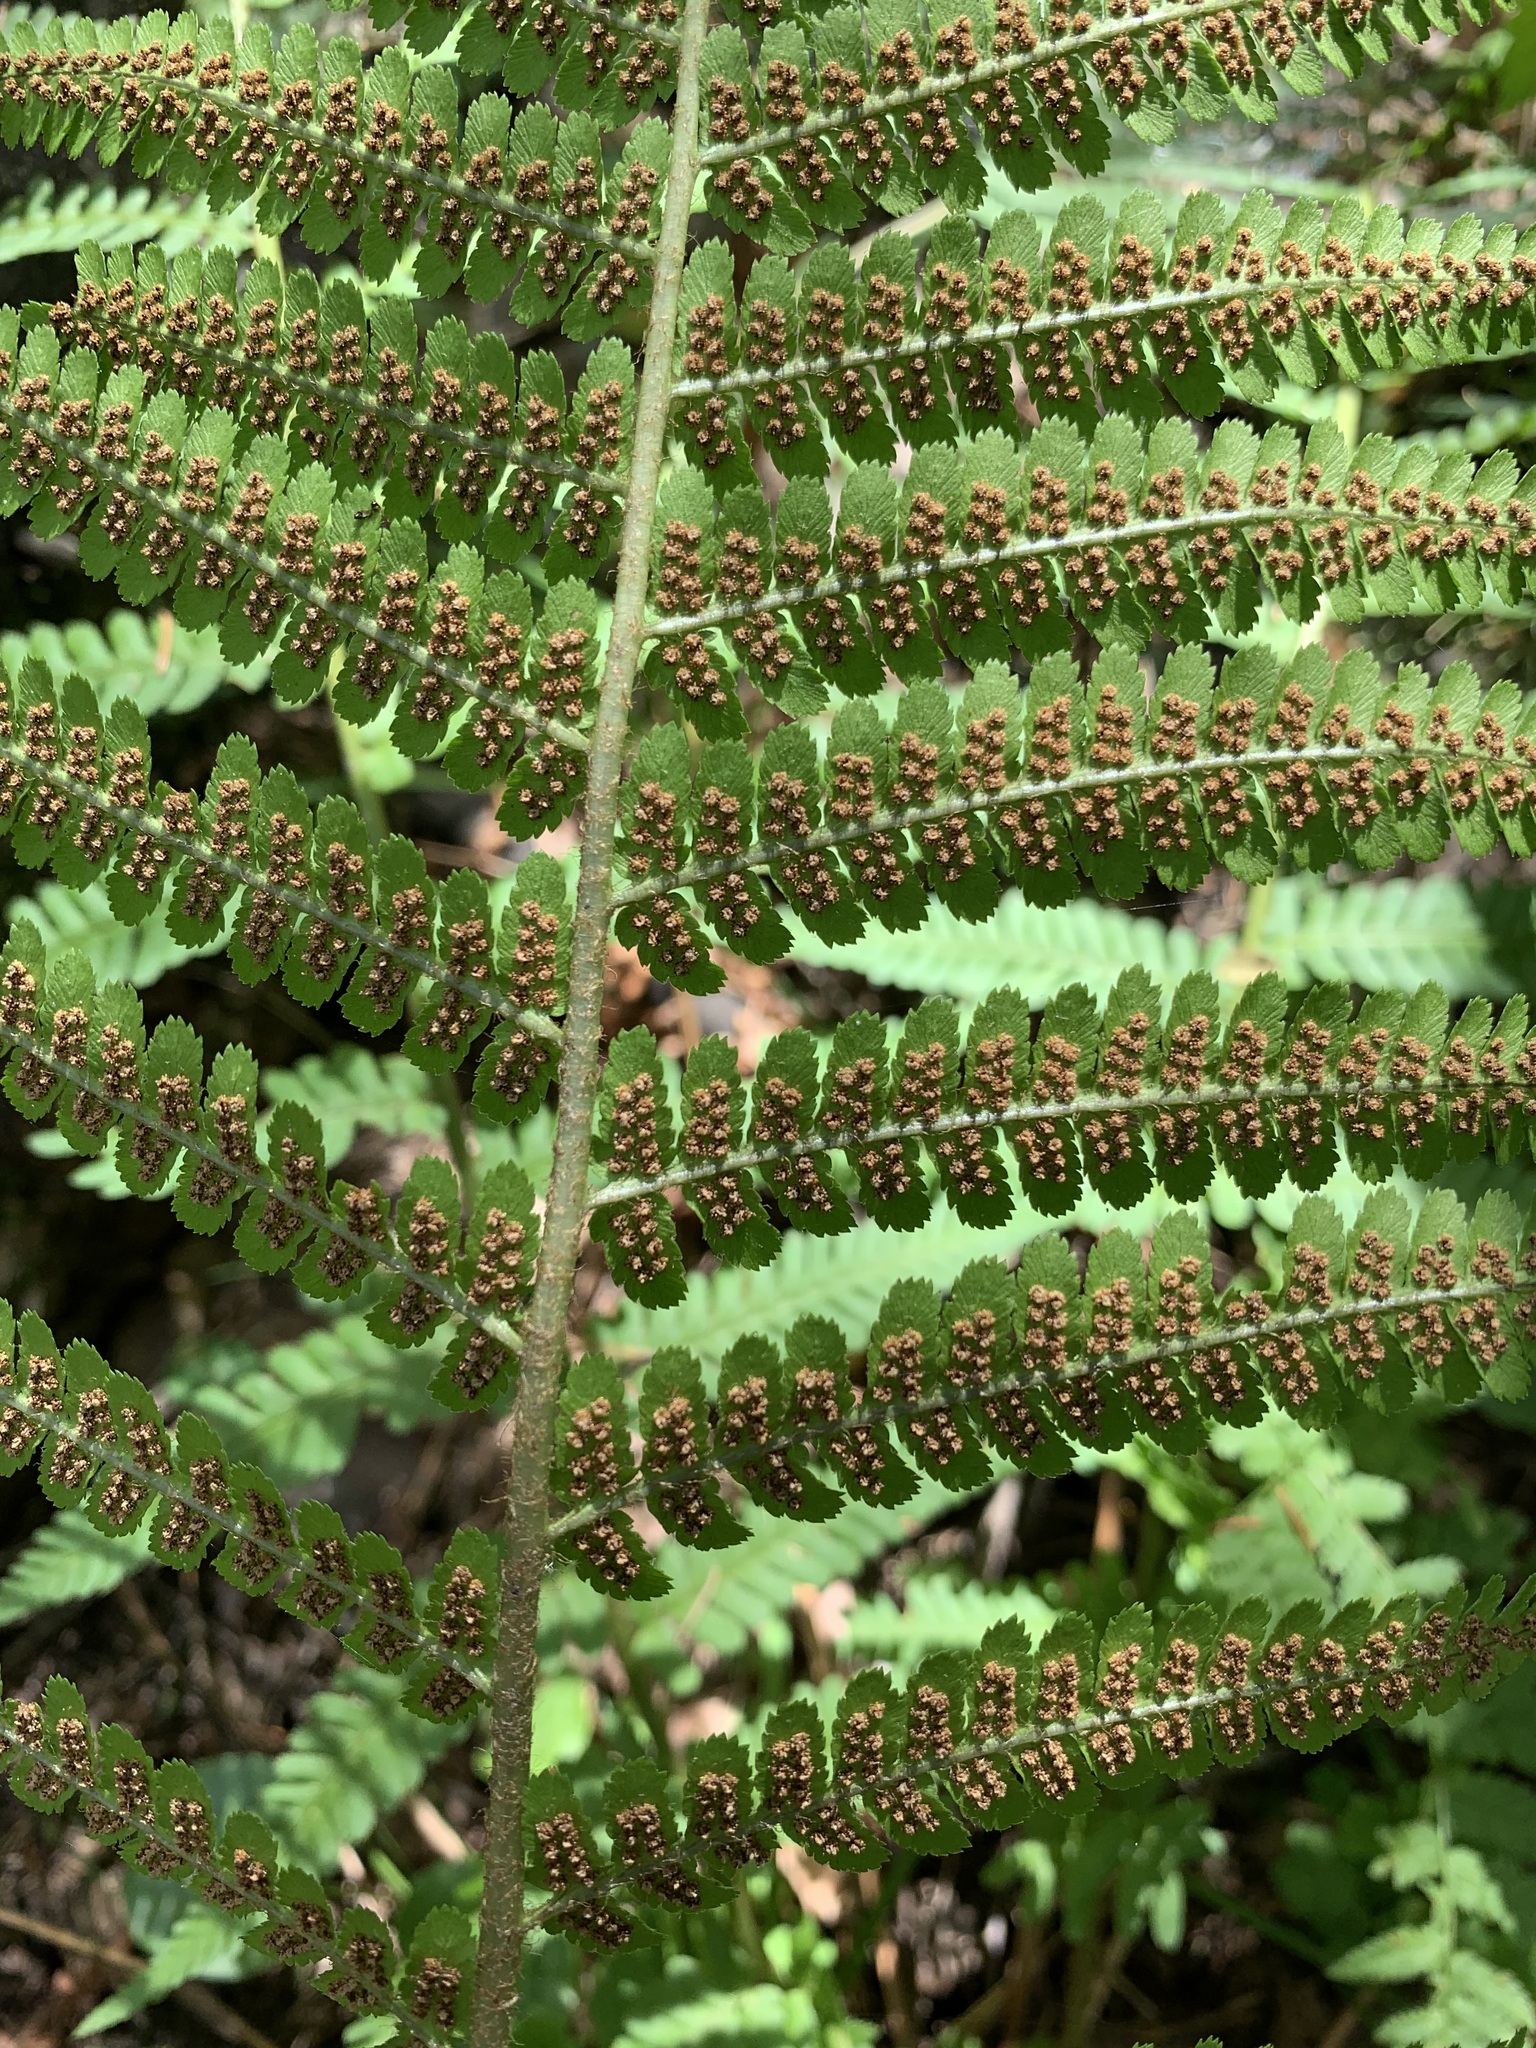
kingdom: Plantae
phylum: Tracheophyta
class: Polypodiopsida
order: Polypodiales
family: Dryopteridaceae
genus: Dryopteris
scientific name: Dryopteris filix-mas
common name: Male fern
